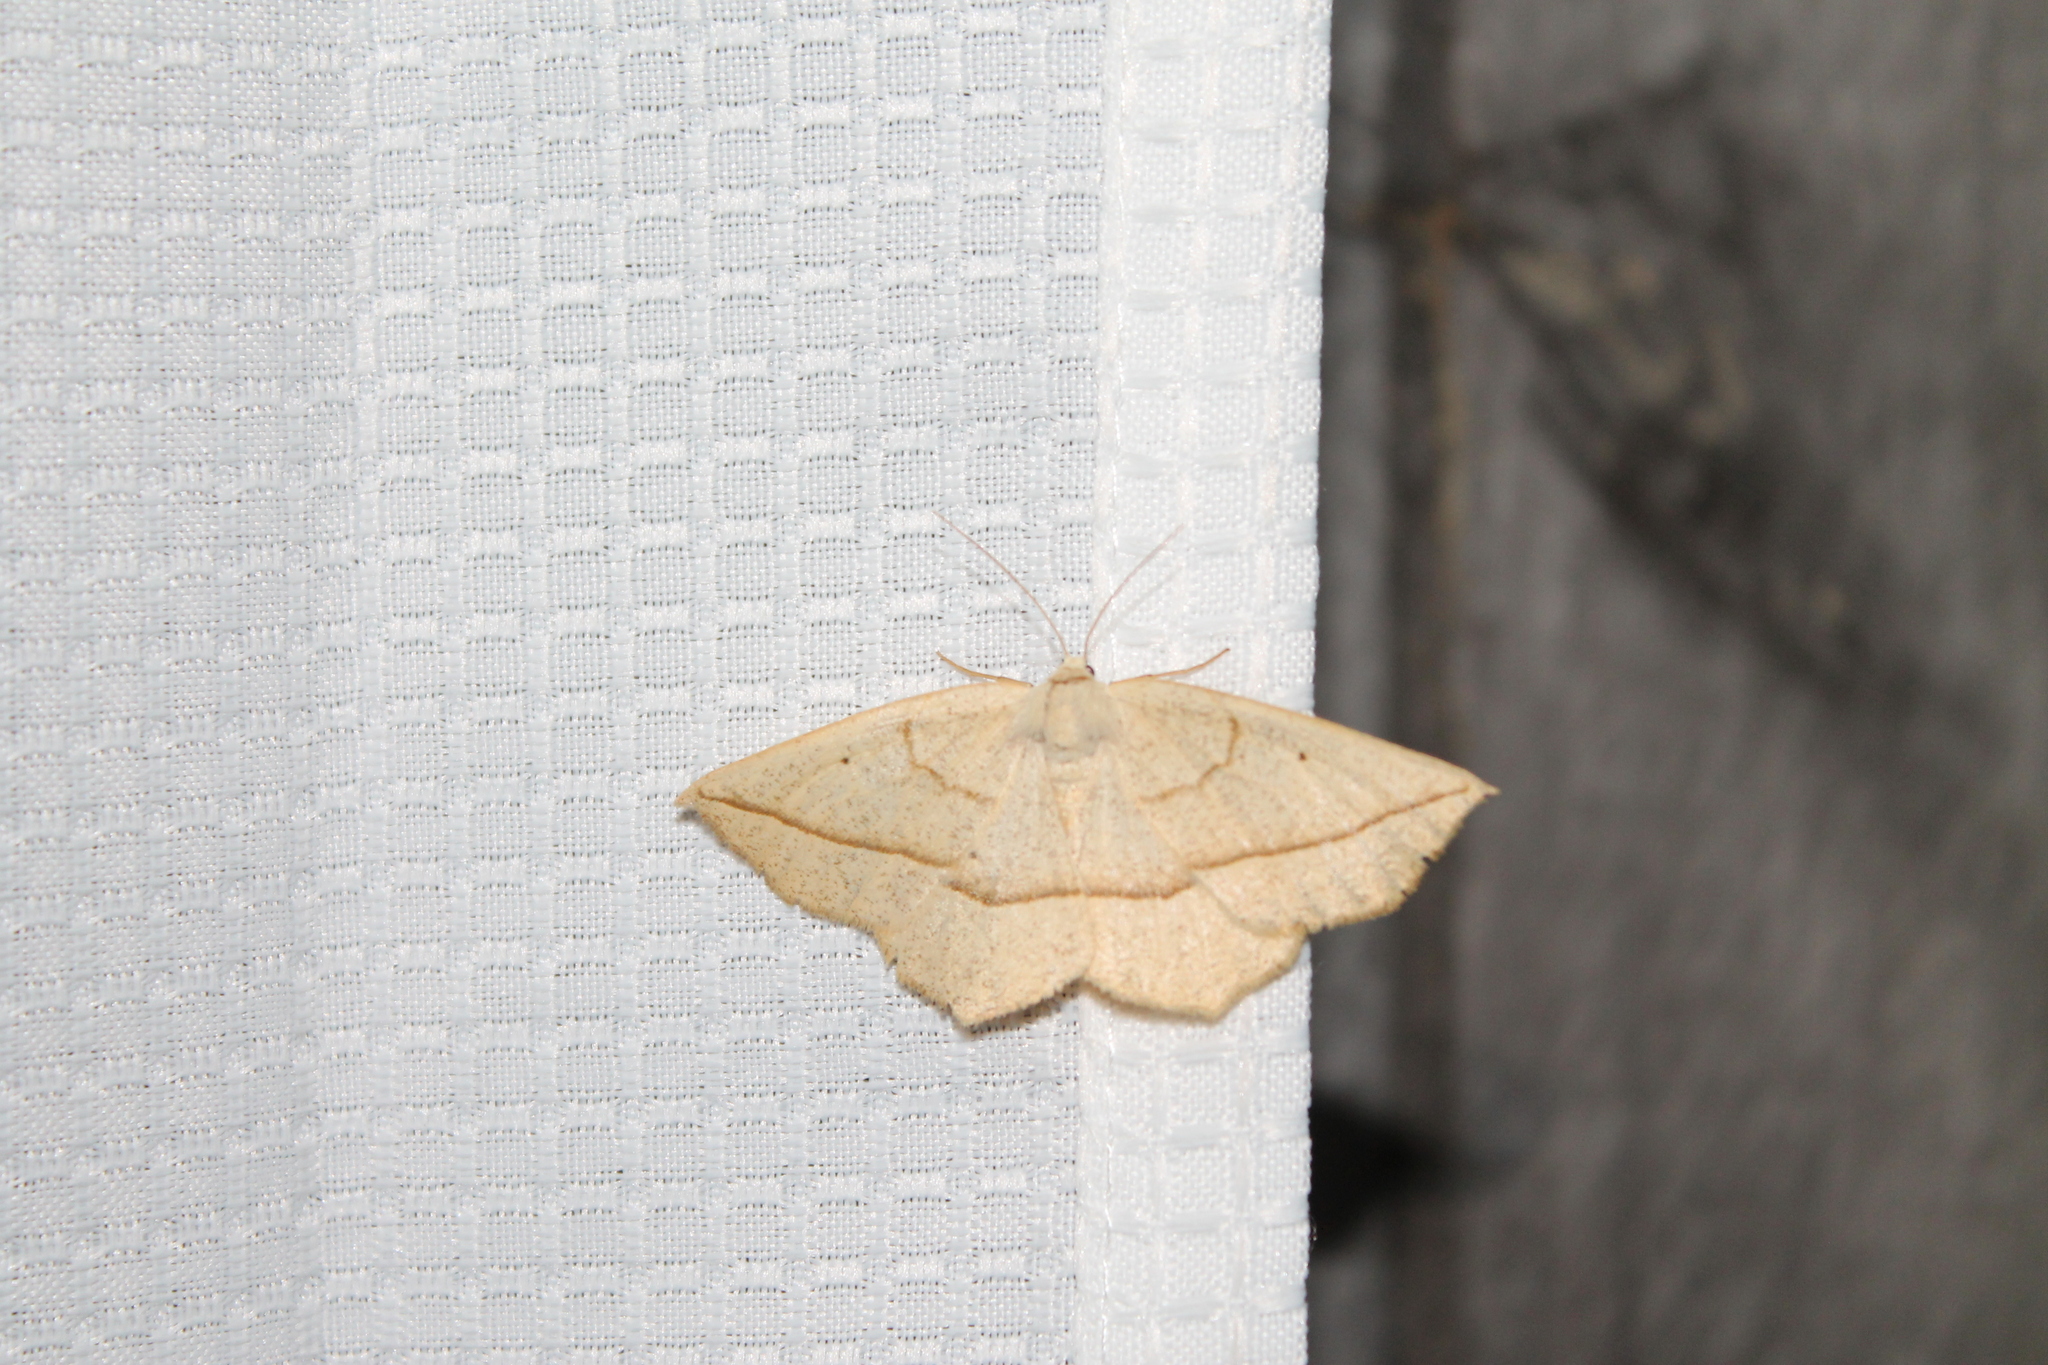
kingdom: Animalia
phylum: Arthropoda
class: Insecta
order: Lepidoptera
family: Geometridae
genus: Eusarca
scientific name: Eusarca confusaria
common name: Confused eusarca
